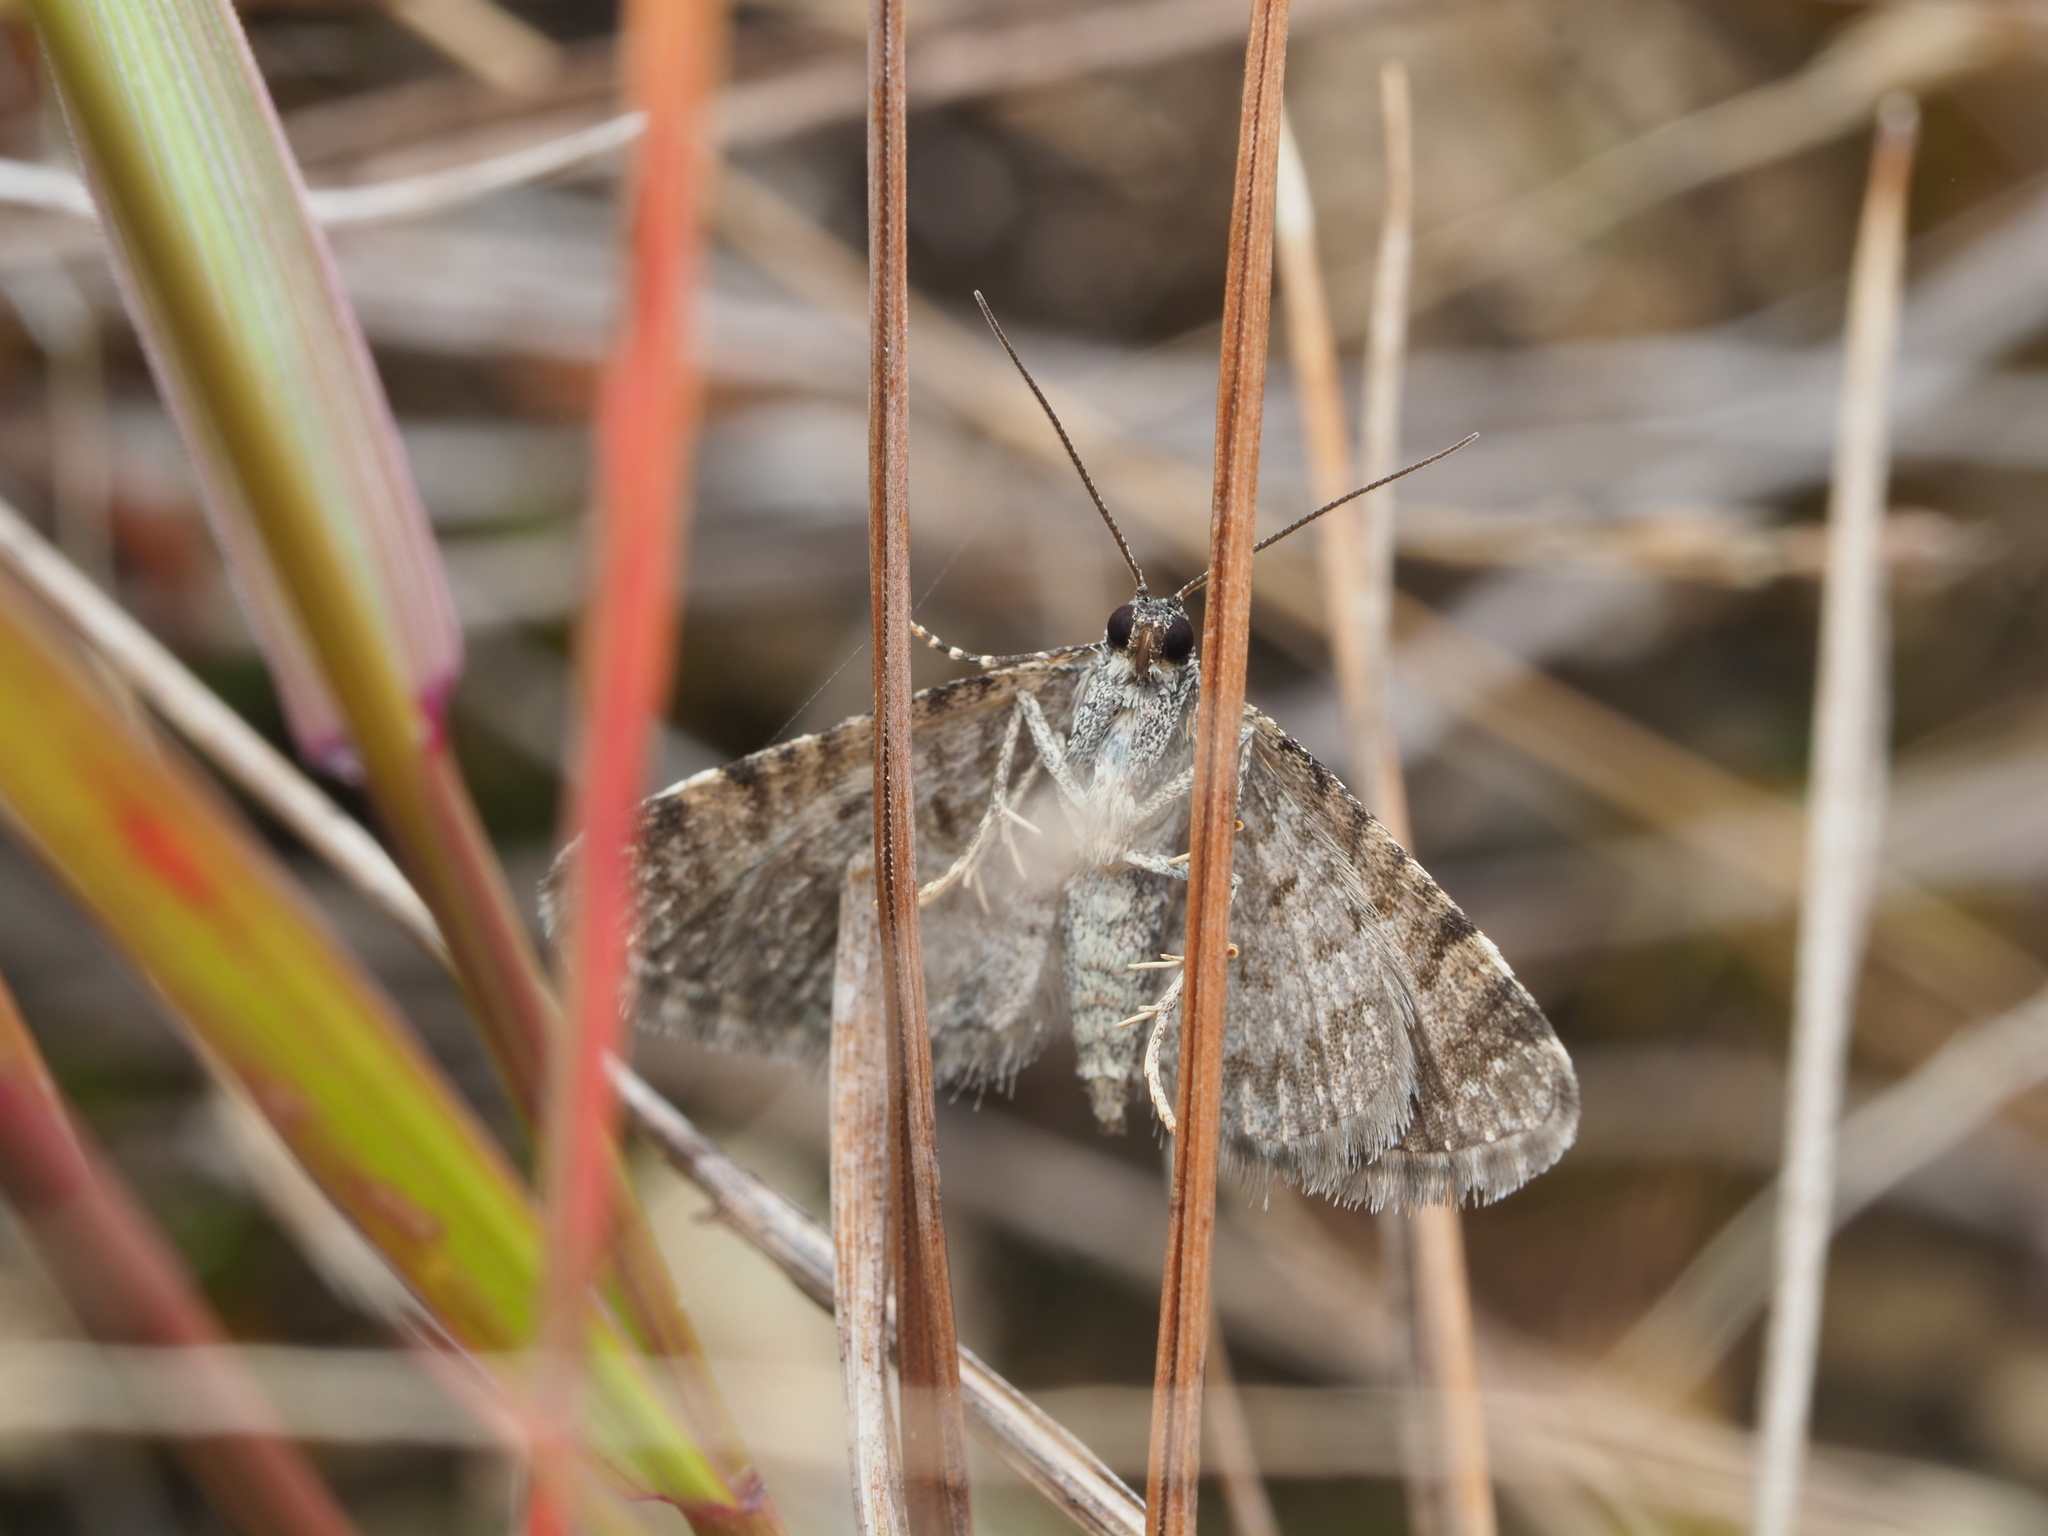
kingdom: Animalia
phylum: Arthropoda
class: Insecta
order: Lepidoptera
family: Geometridae
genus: Chloroclystis
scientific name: Chloroclystis nereis
